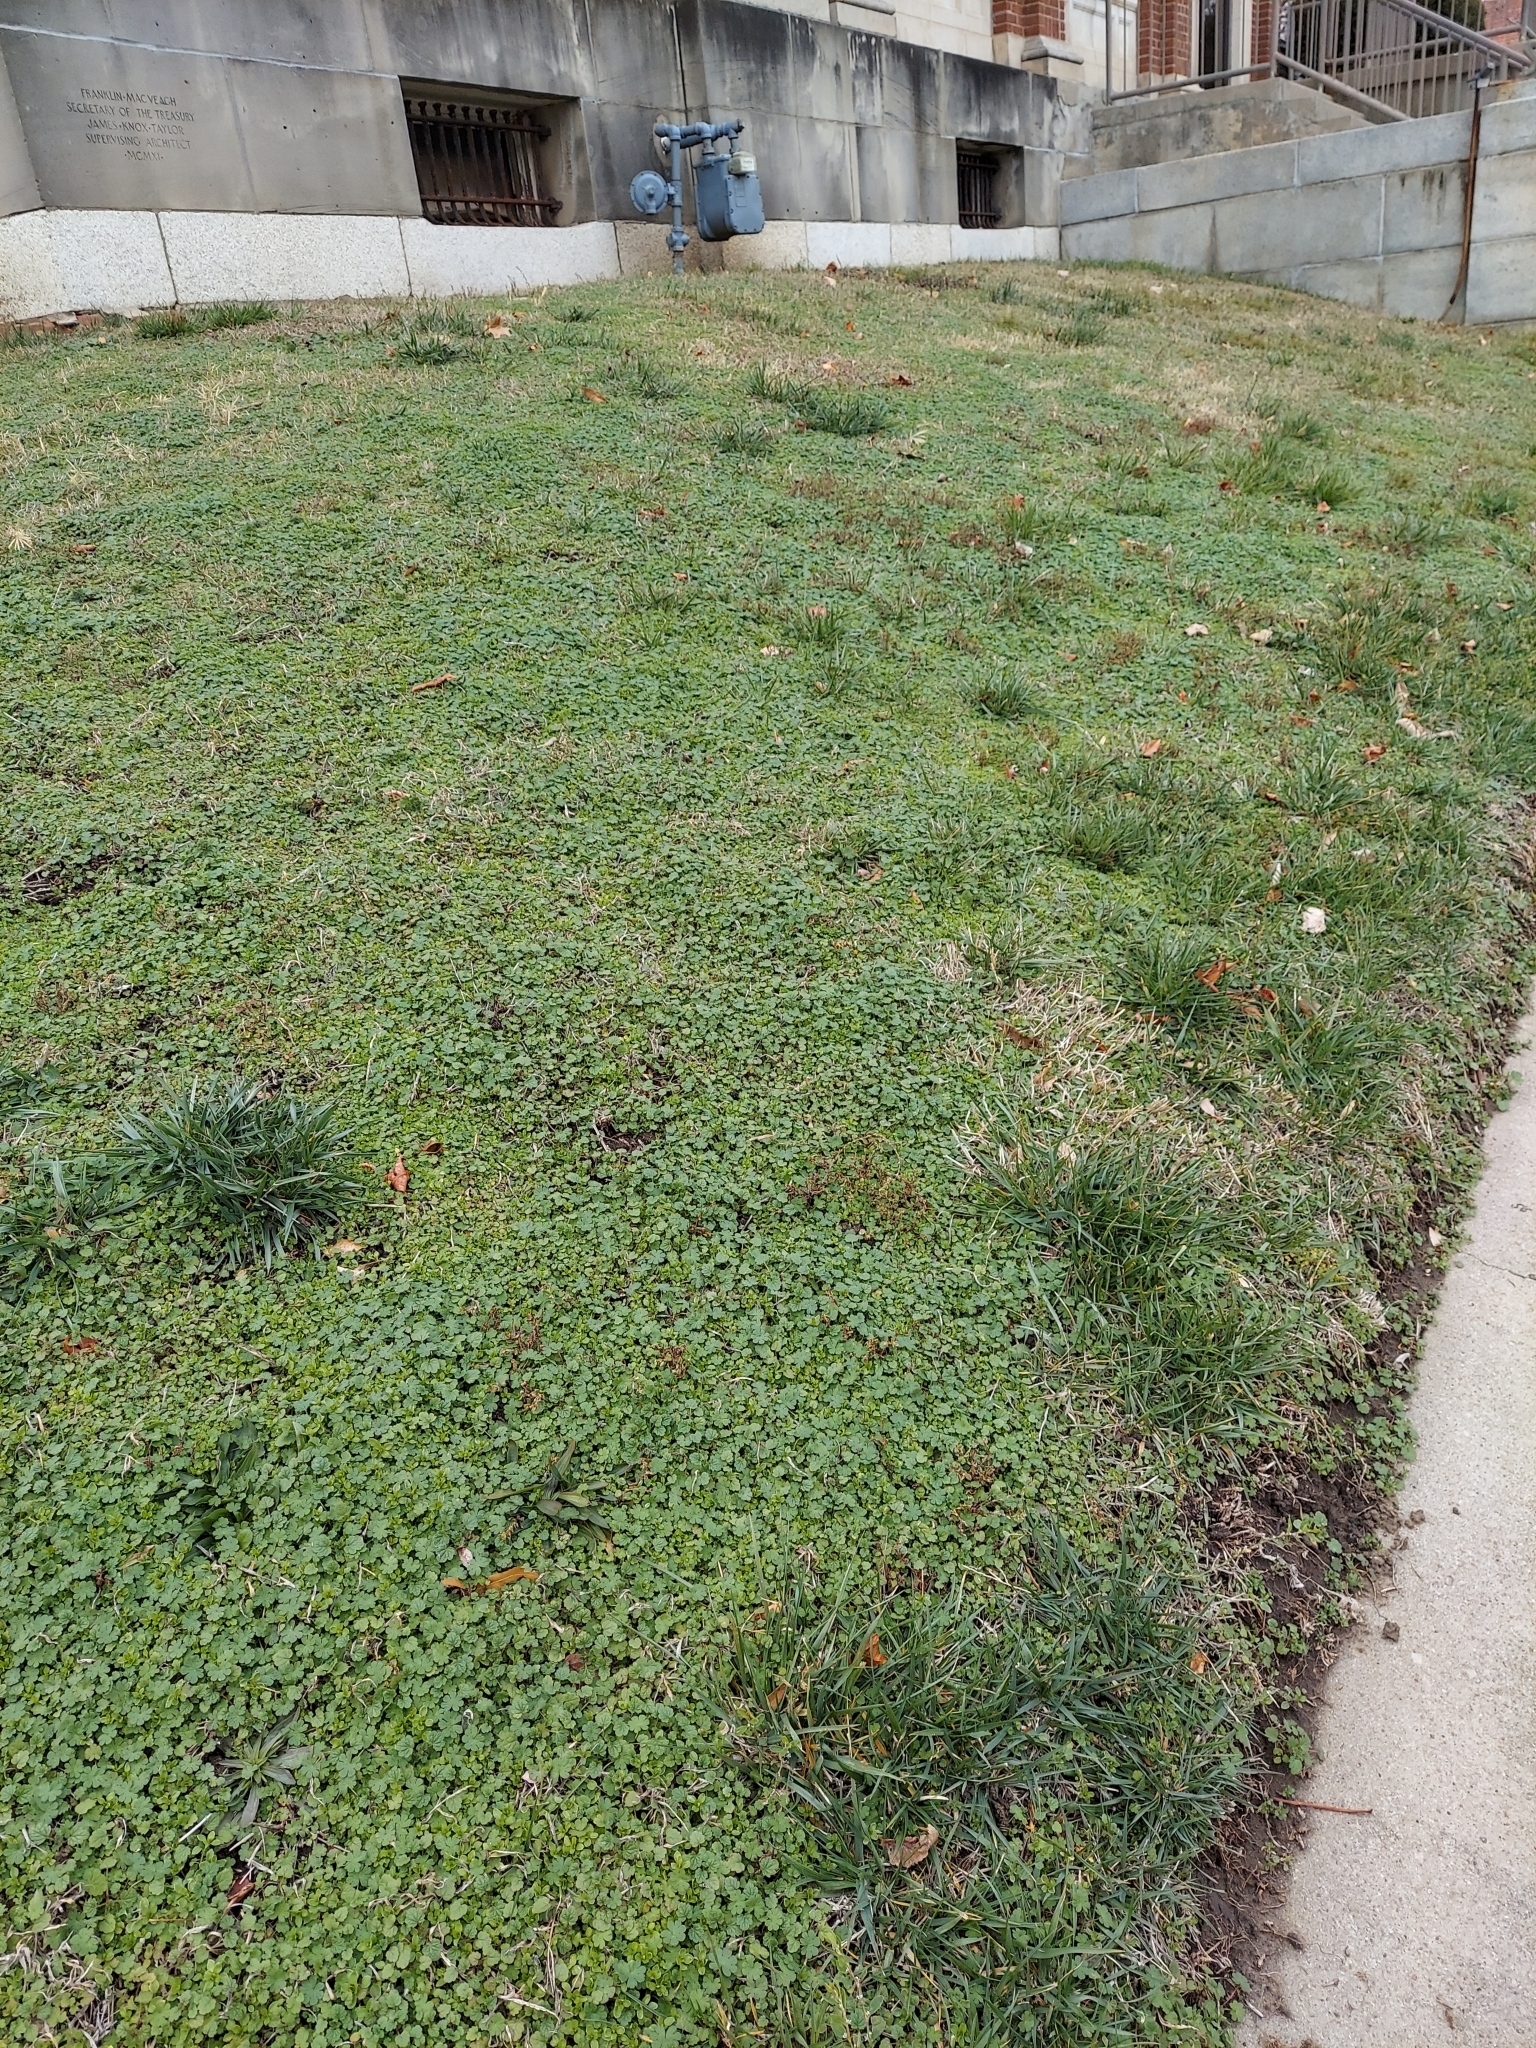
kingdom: Plantae
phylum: Tracheophyta
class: Magnoliopsida
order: Lamiales
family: Plantaginaceae
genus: Plantago
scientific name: Plantago lanceolata
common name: Ribwort plantain
